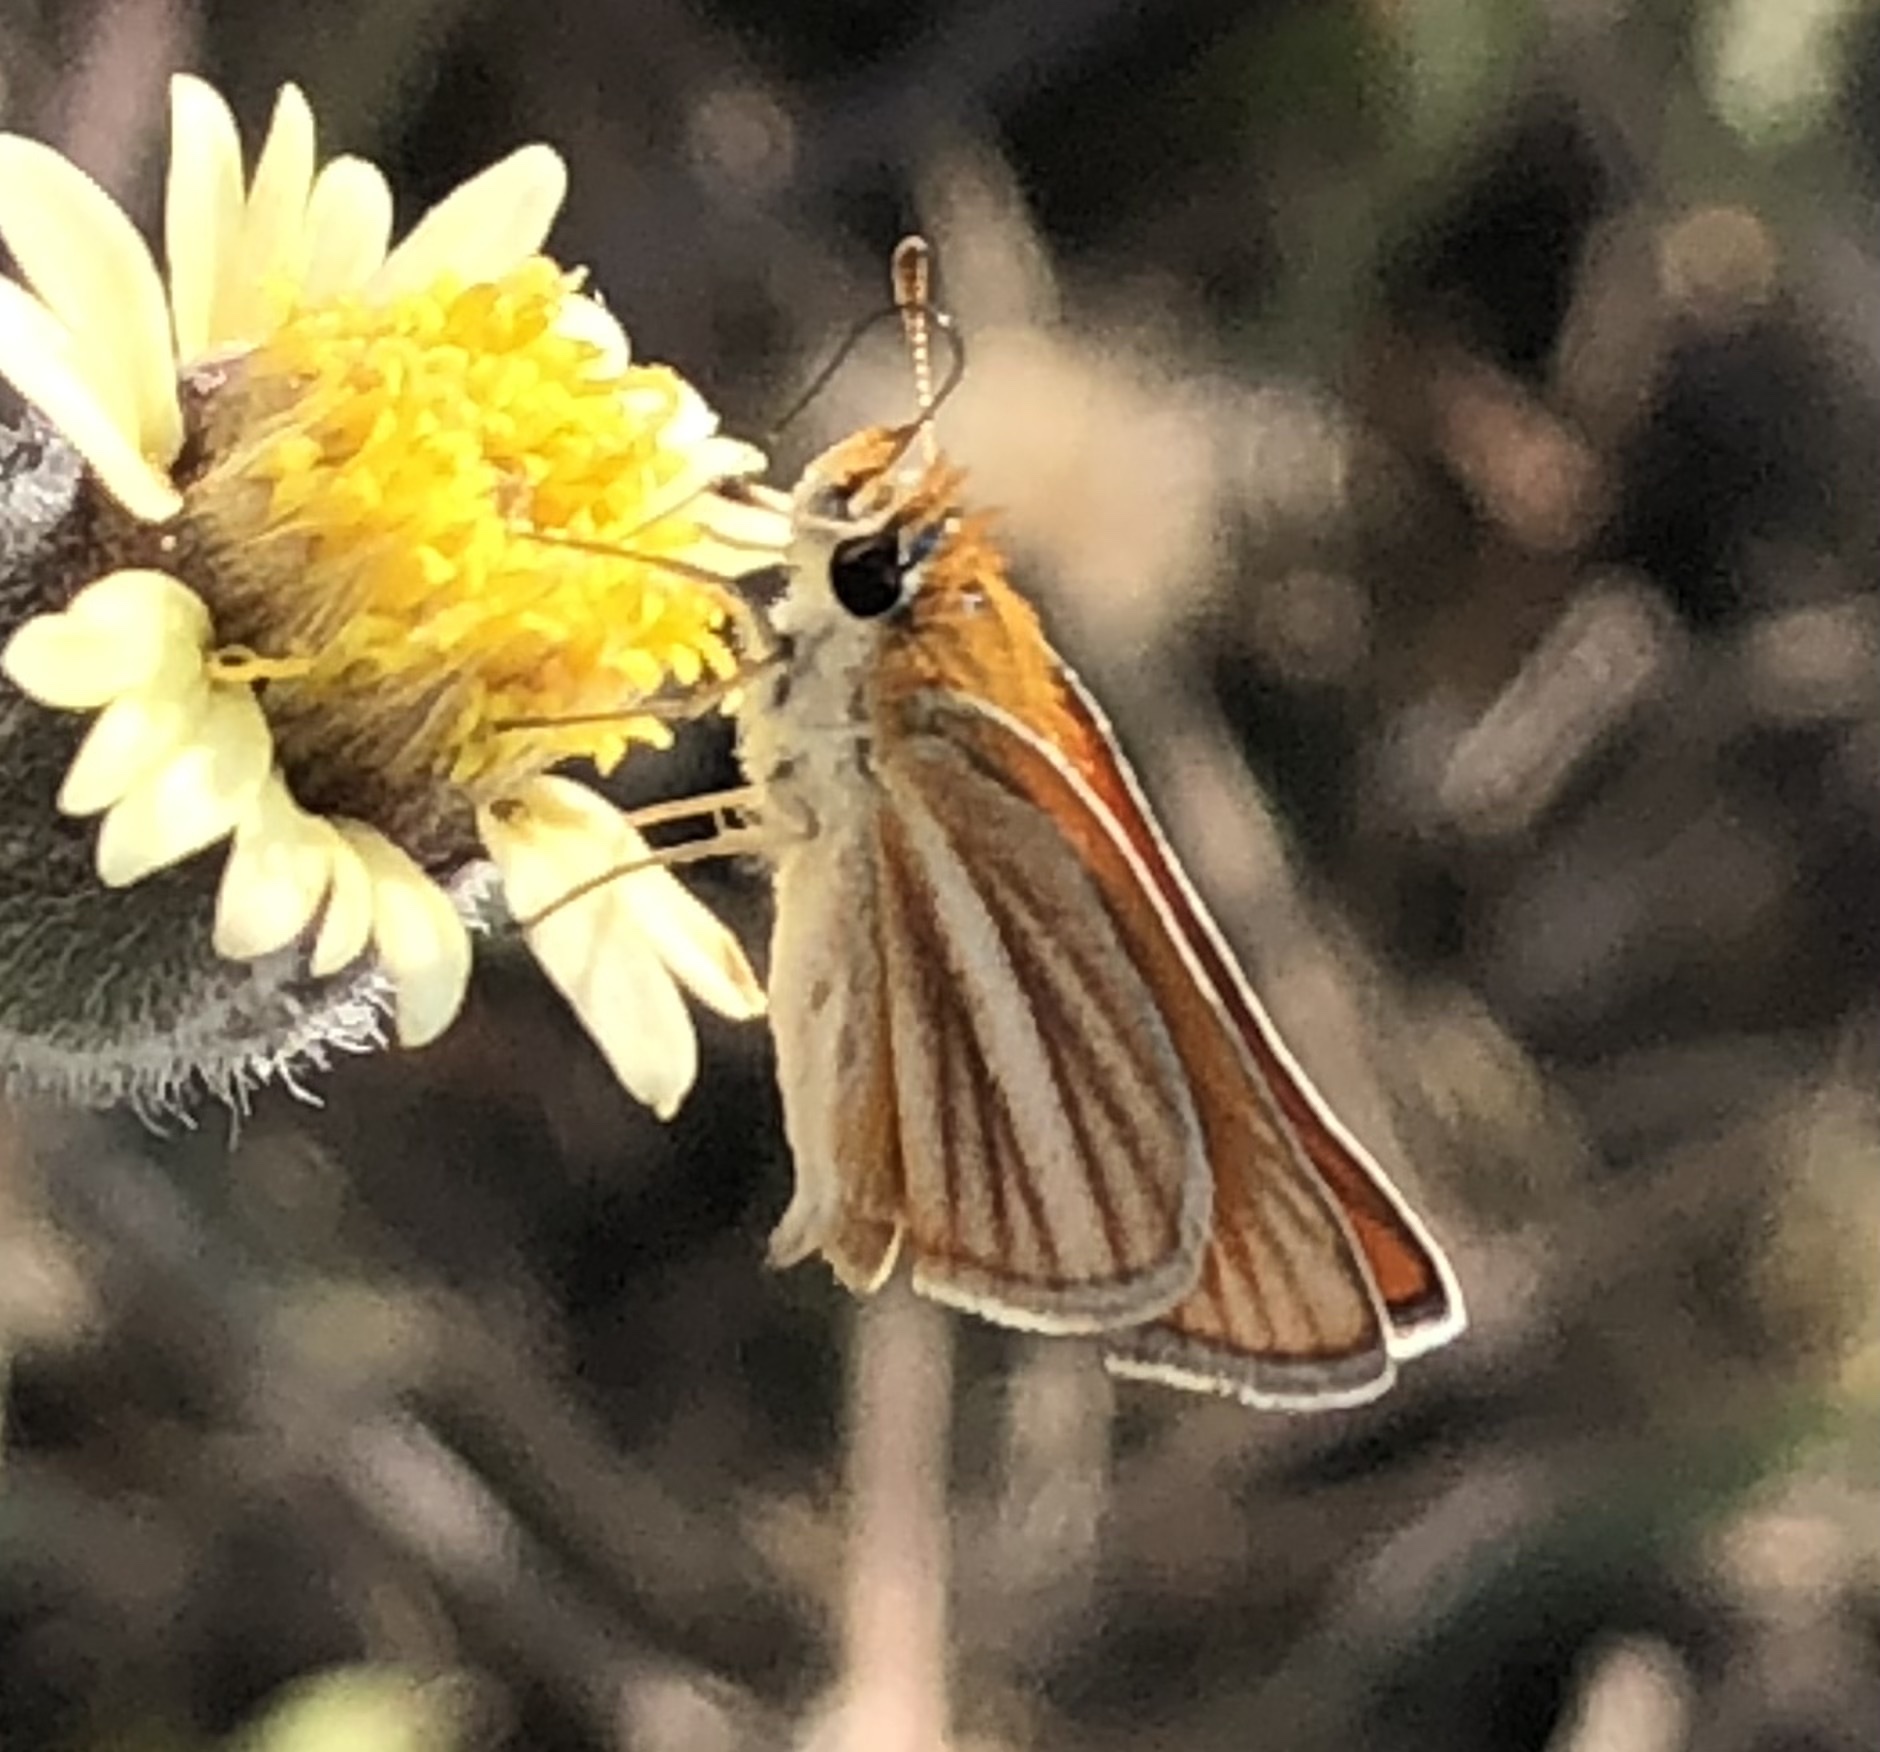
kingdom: Animalia
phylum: Arthropoda
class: Insecta
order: Lepidoptera
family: Hesperiidae
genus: Copaeodes
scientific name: Copaeodes minima
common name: Southern skipperling
